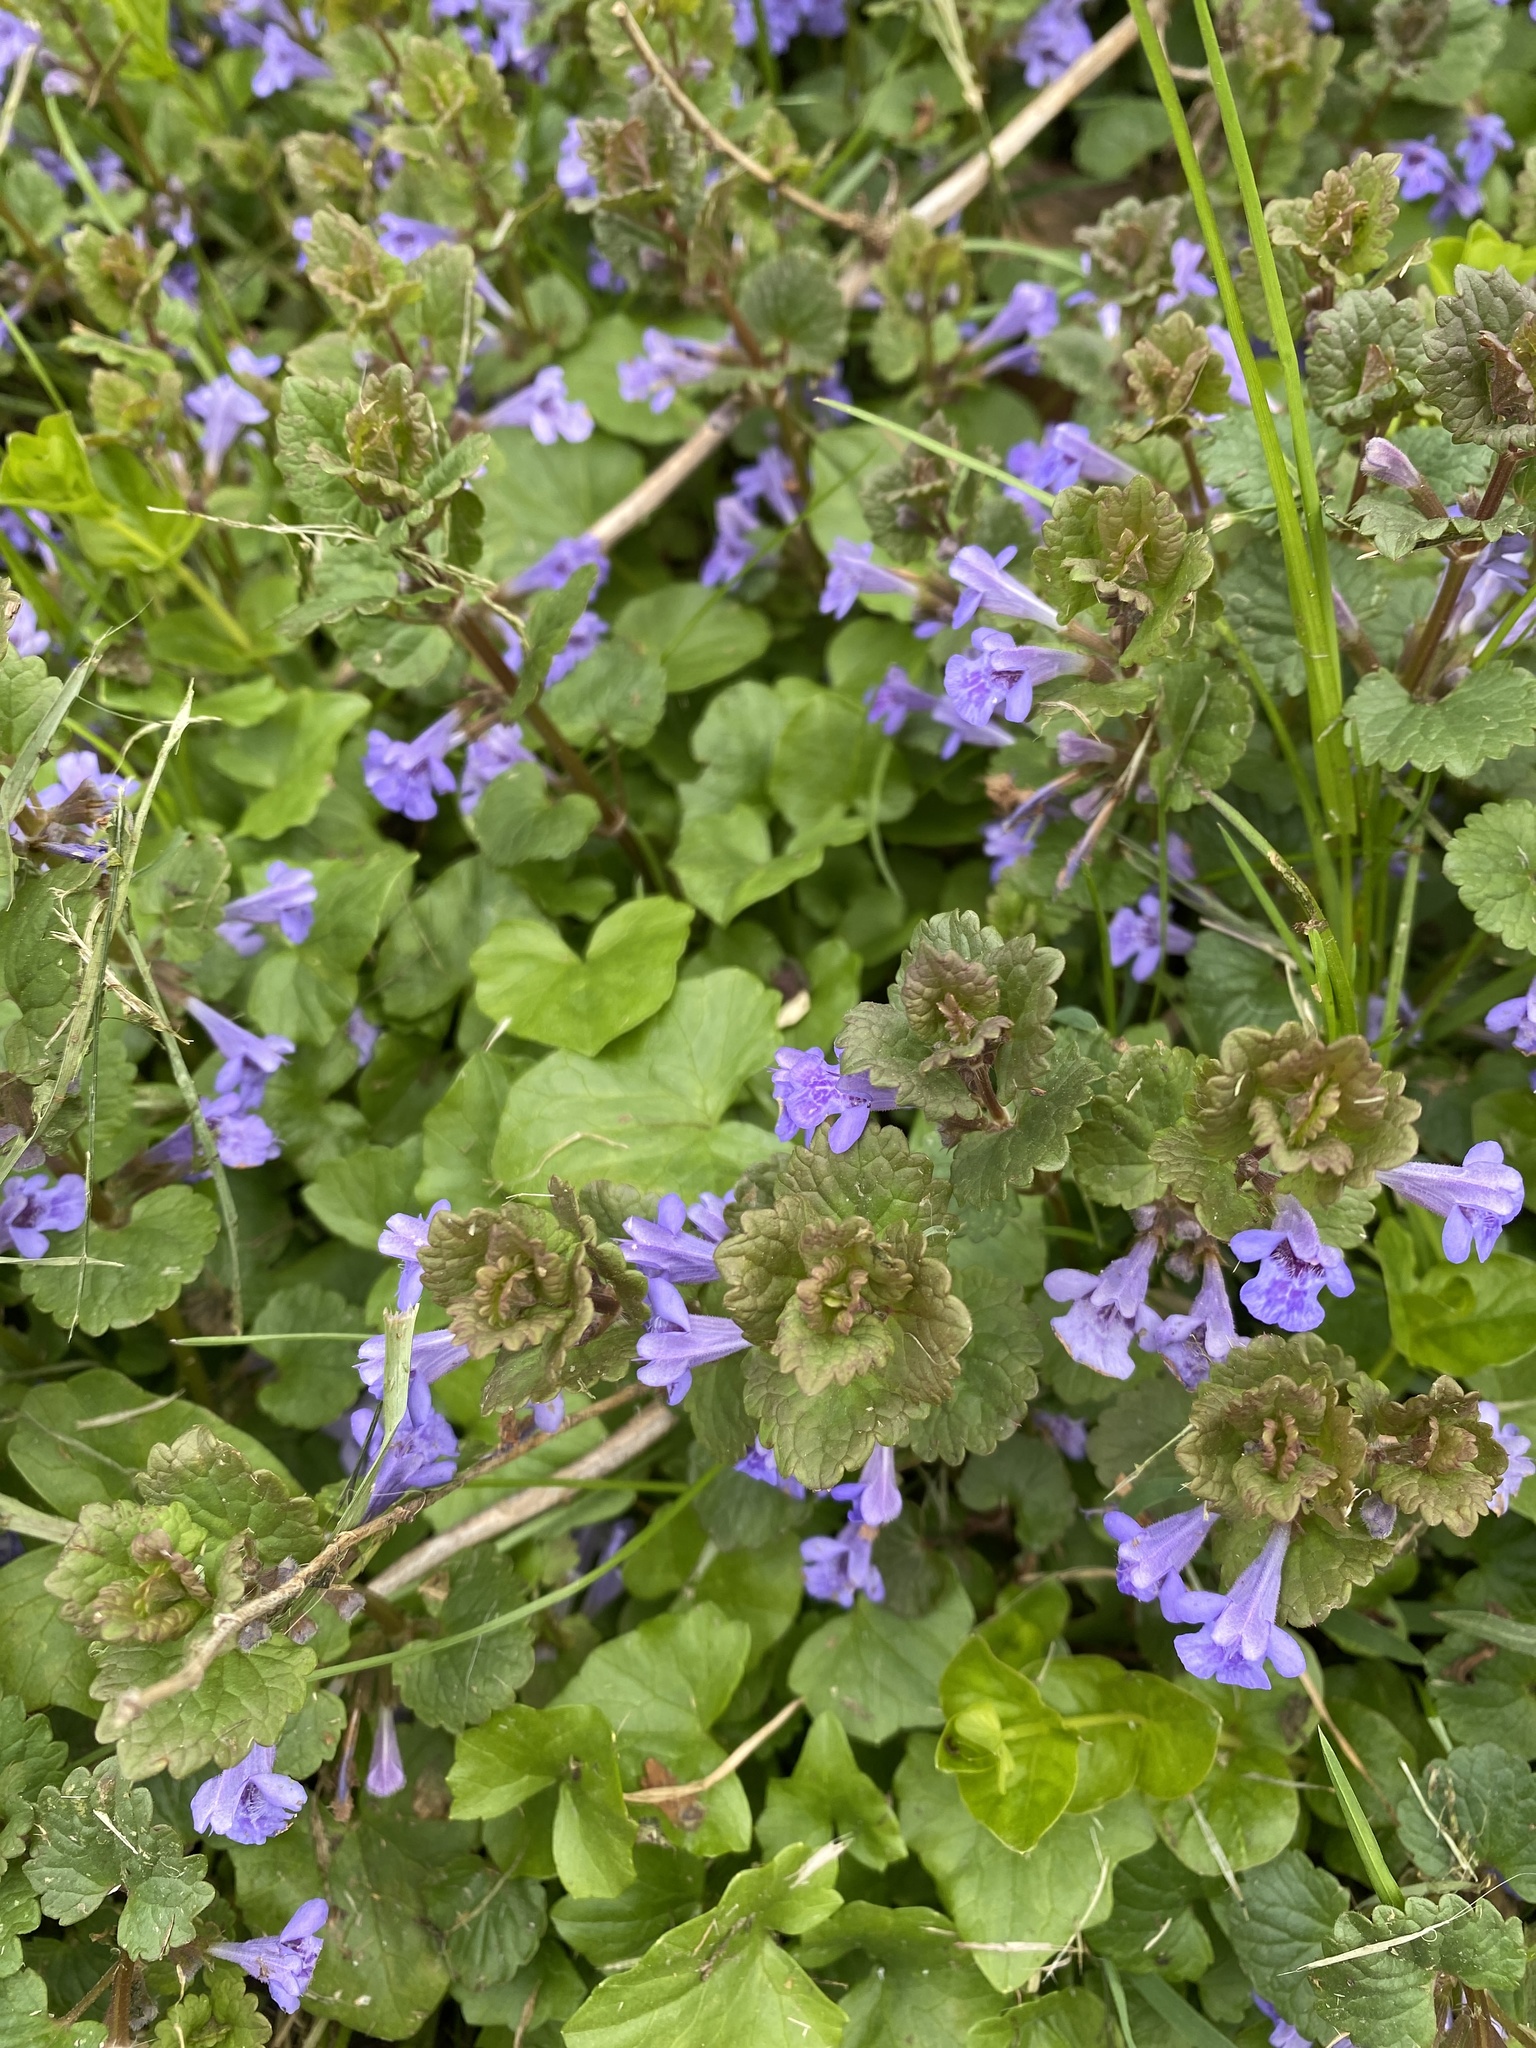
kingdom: Plantae
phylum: Tracheophyta
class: Magnoliopsida
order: Lamiales
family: Lamiaceae
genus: Glechoma
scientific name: Glechoma hederacea
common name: Ground ivy
